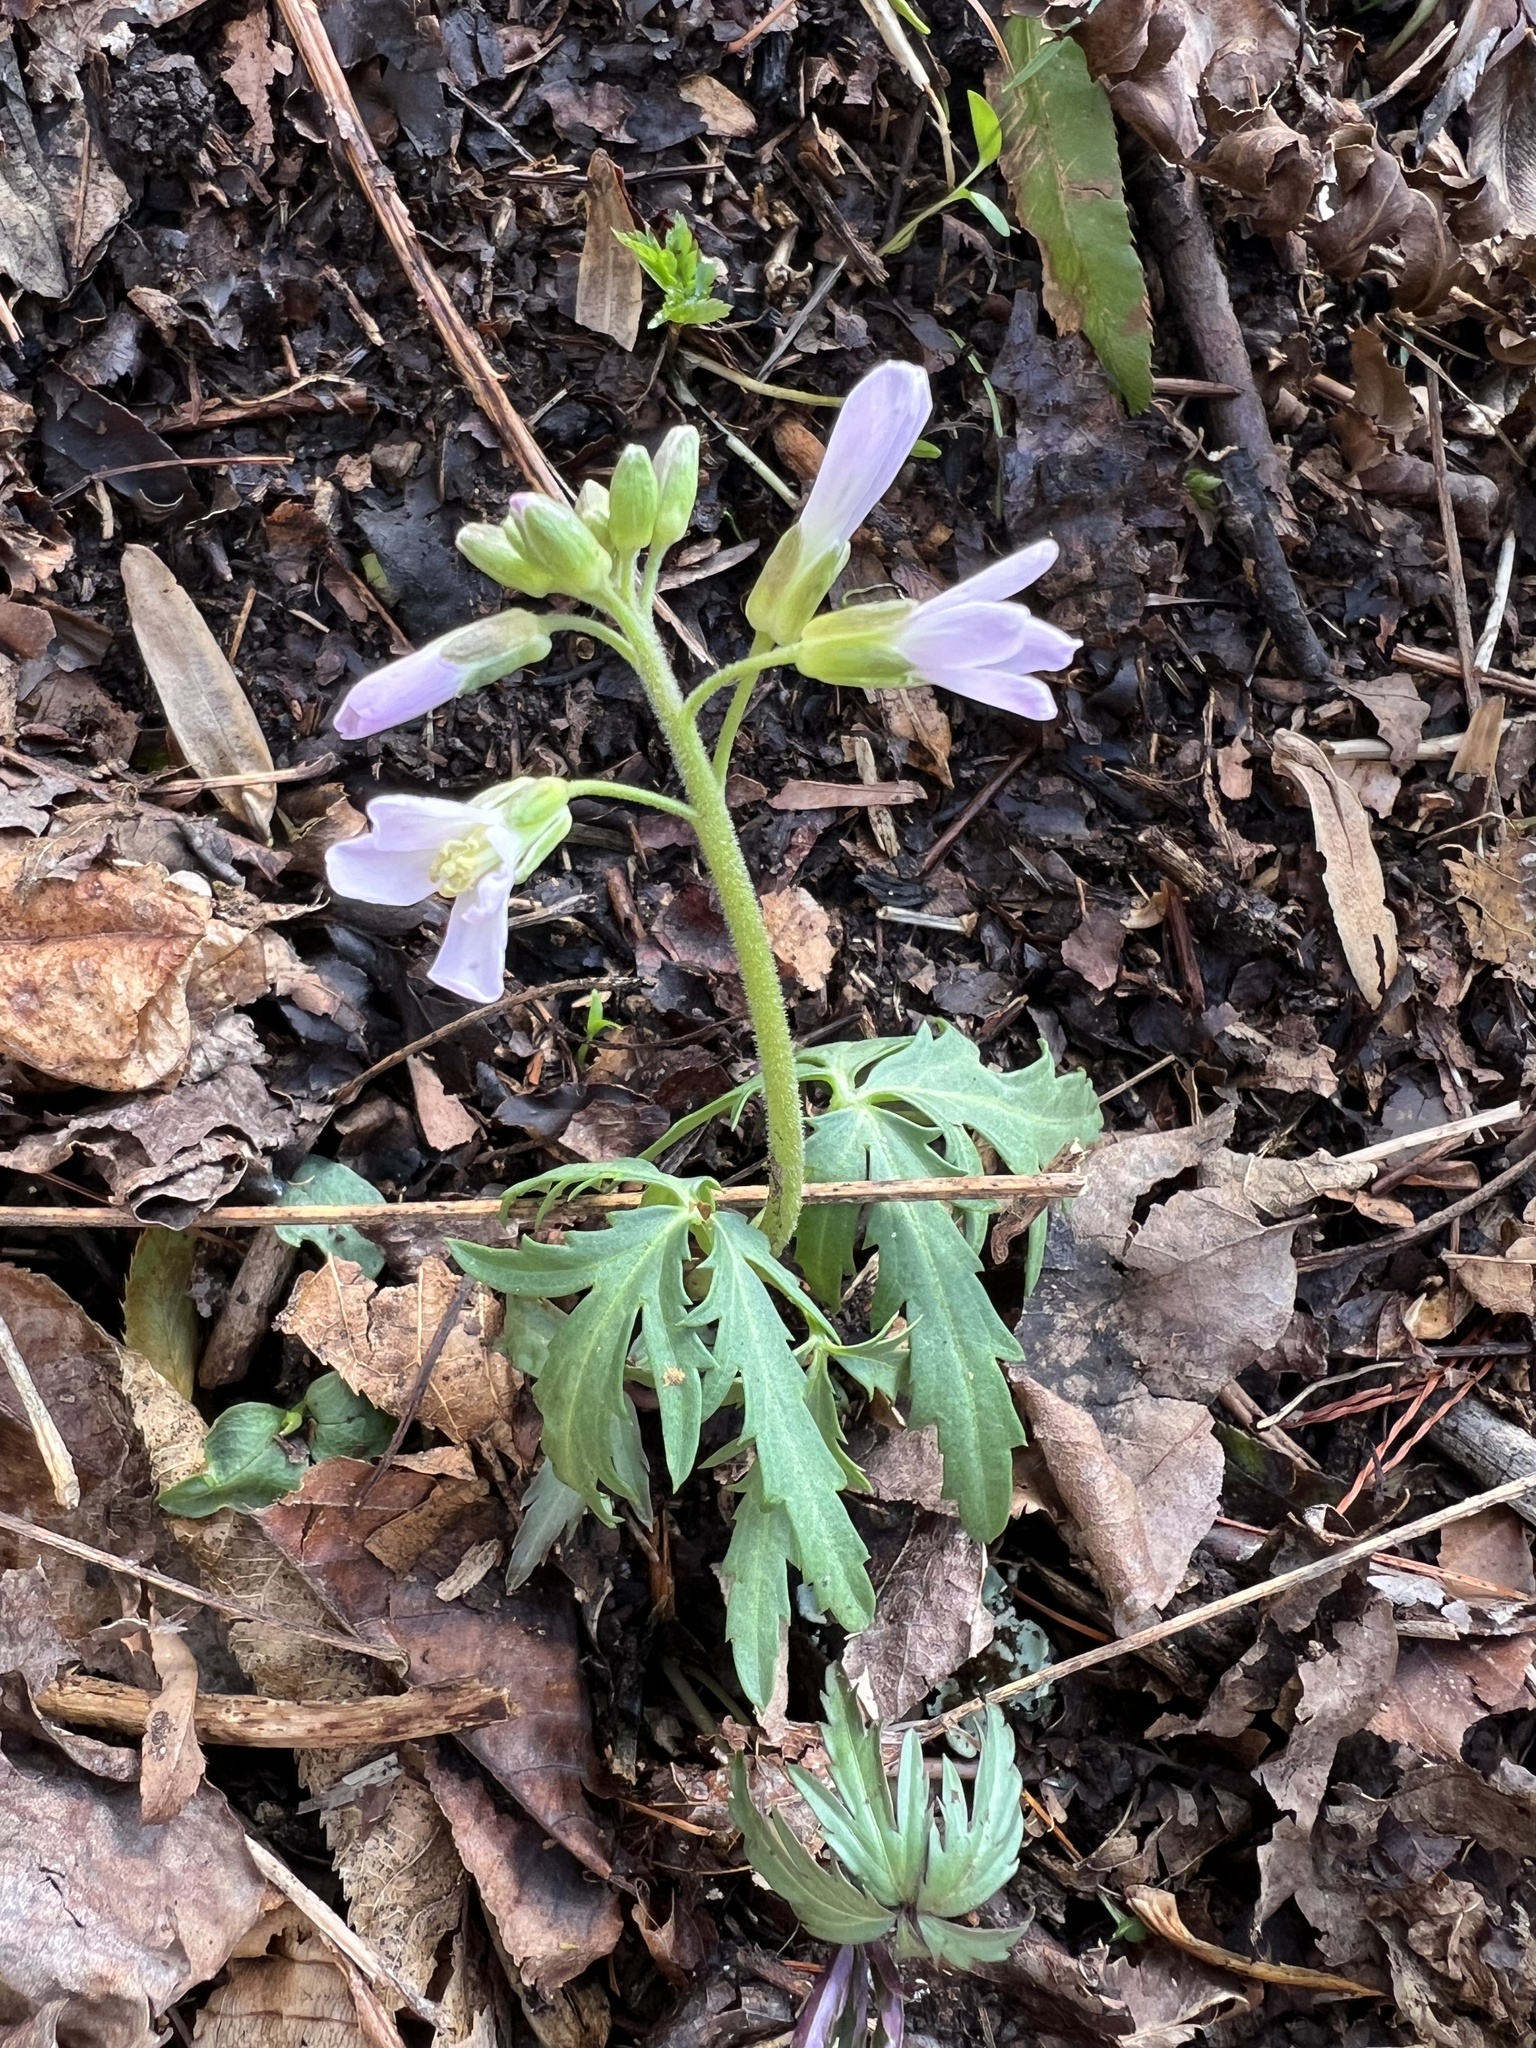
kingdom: Plantae
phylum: Tracheophyta
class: Magnoliopsida
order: Brassicales
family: Brassicaceae
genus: Cardamine
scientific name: Cardamine concatenata
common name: Cut-leaf toothcup
